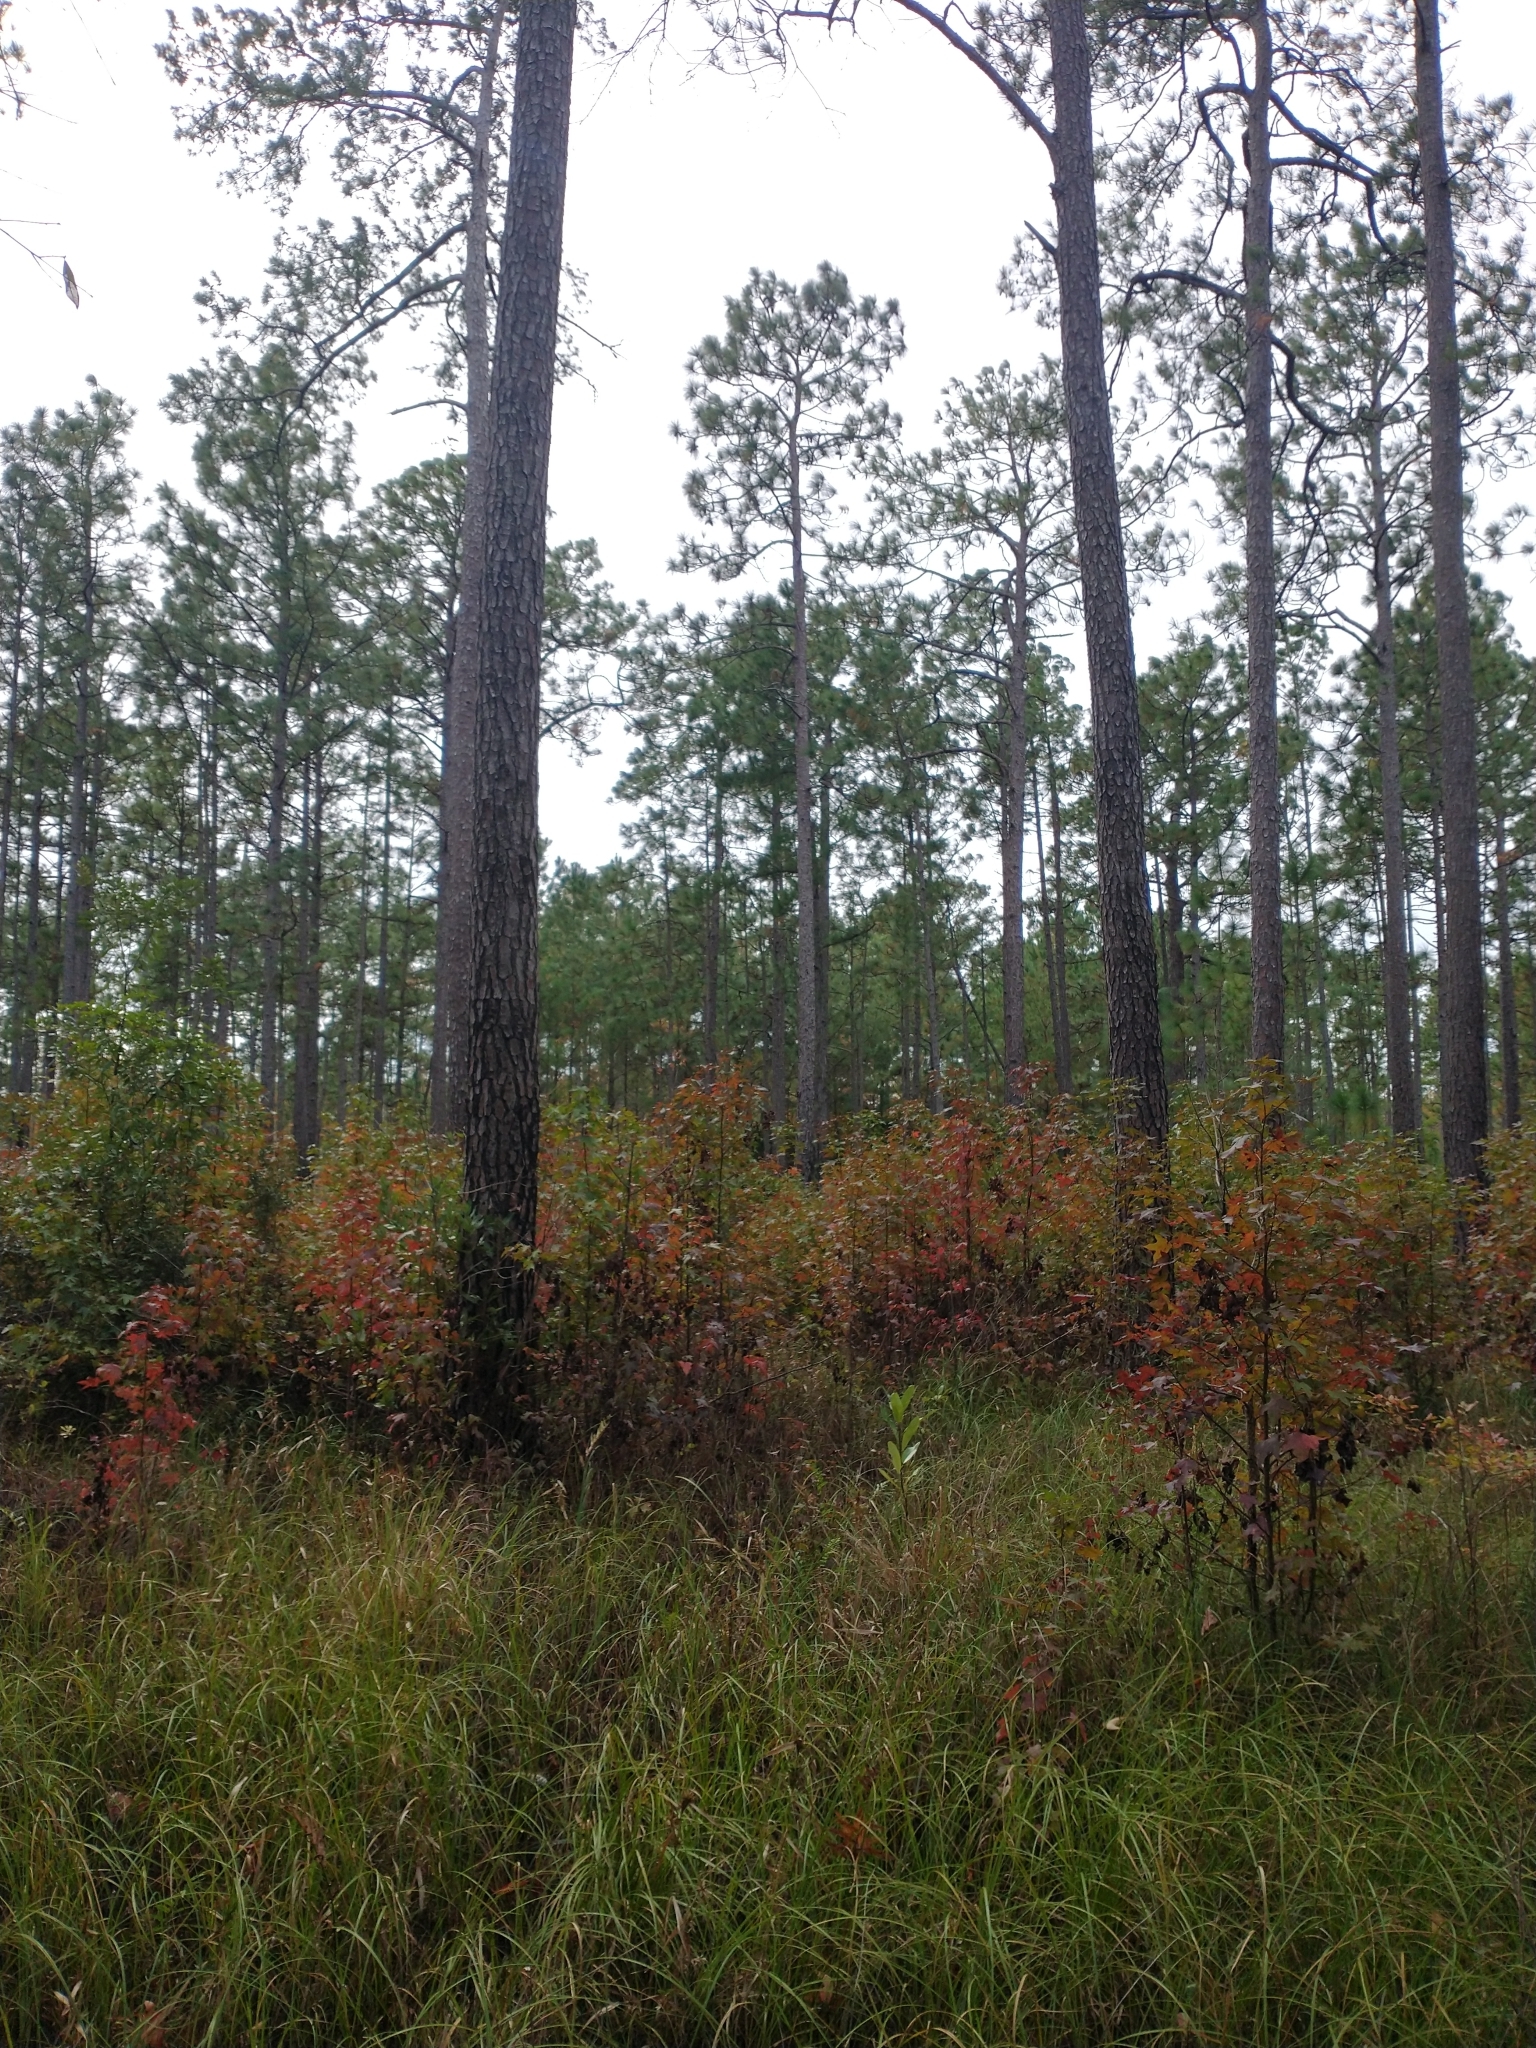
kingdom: Plantae
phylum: Tracheophyta
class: Magnoliopsida
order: Saxifragales
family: Altingiaceae
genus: Liquidambar
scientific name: Liquidambar styraciflua
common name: Sweet gum
